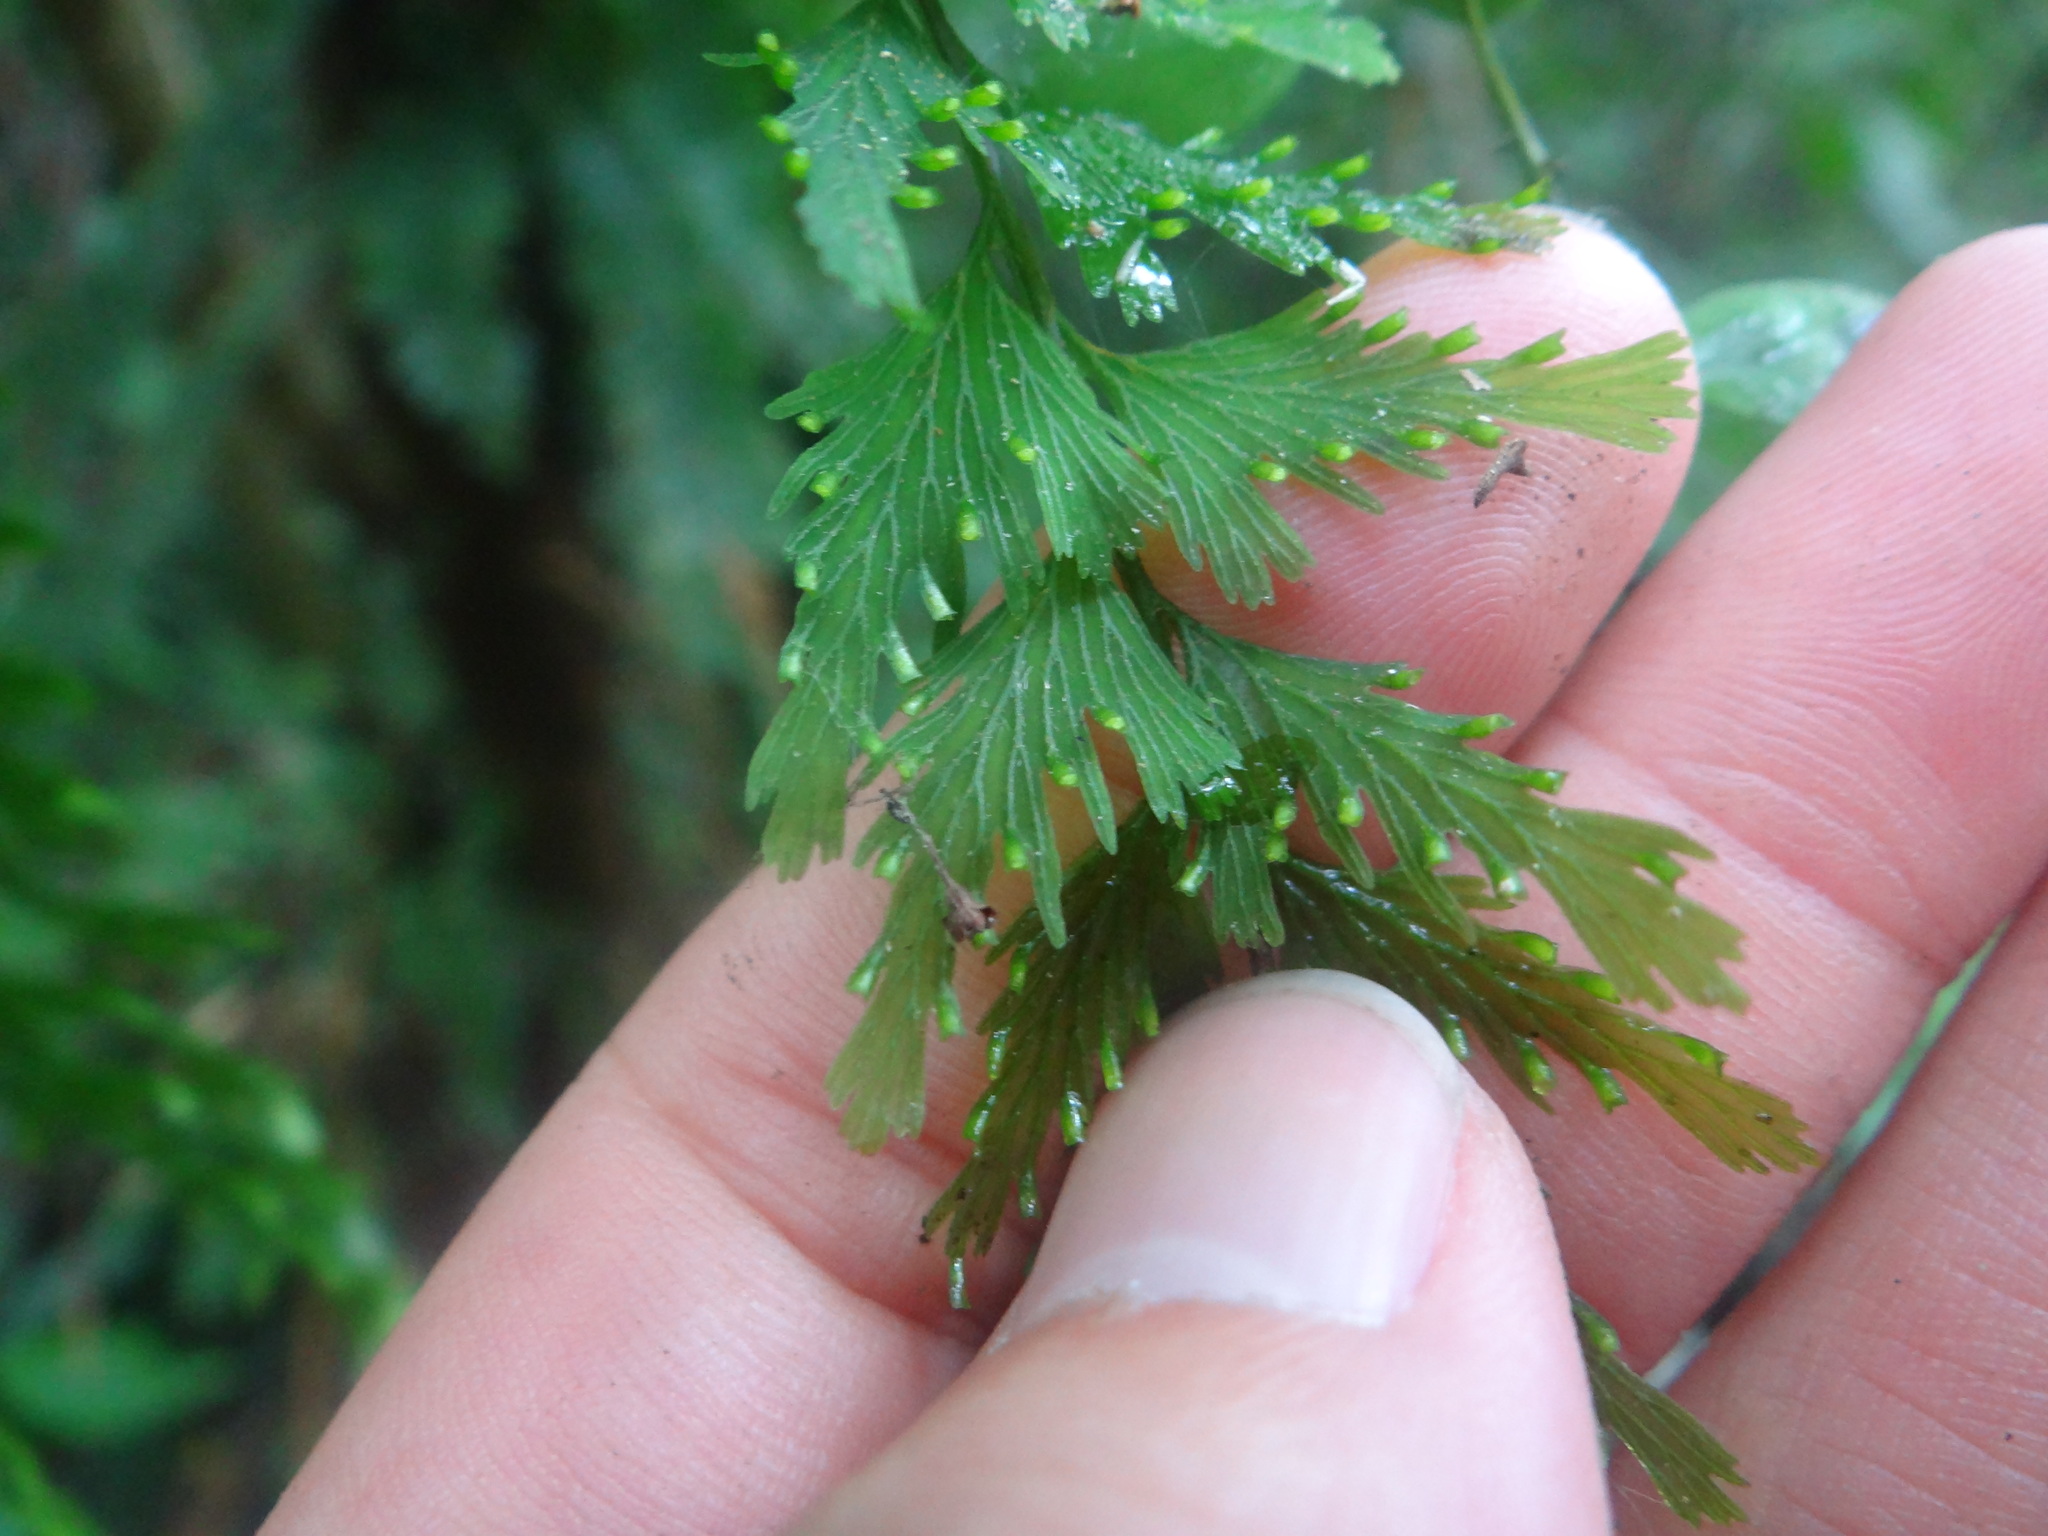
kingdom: Plantae
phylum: Tracheophyta
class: Polypodiopsida
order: Hymenophyllales
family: Hymenophyllaceae
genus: Vandenboschia
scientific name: Vandenboschia auriculata
